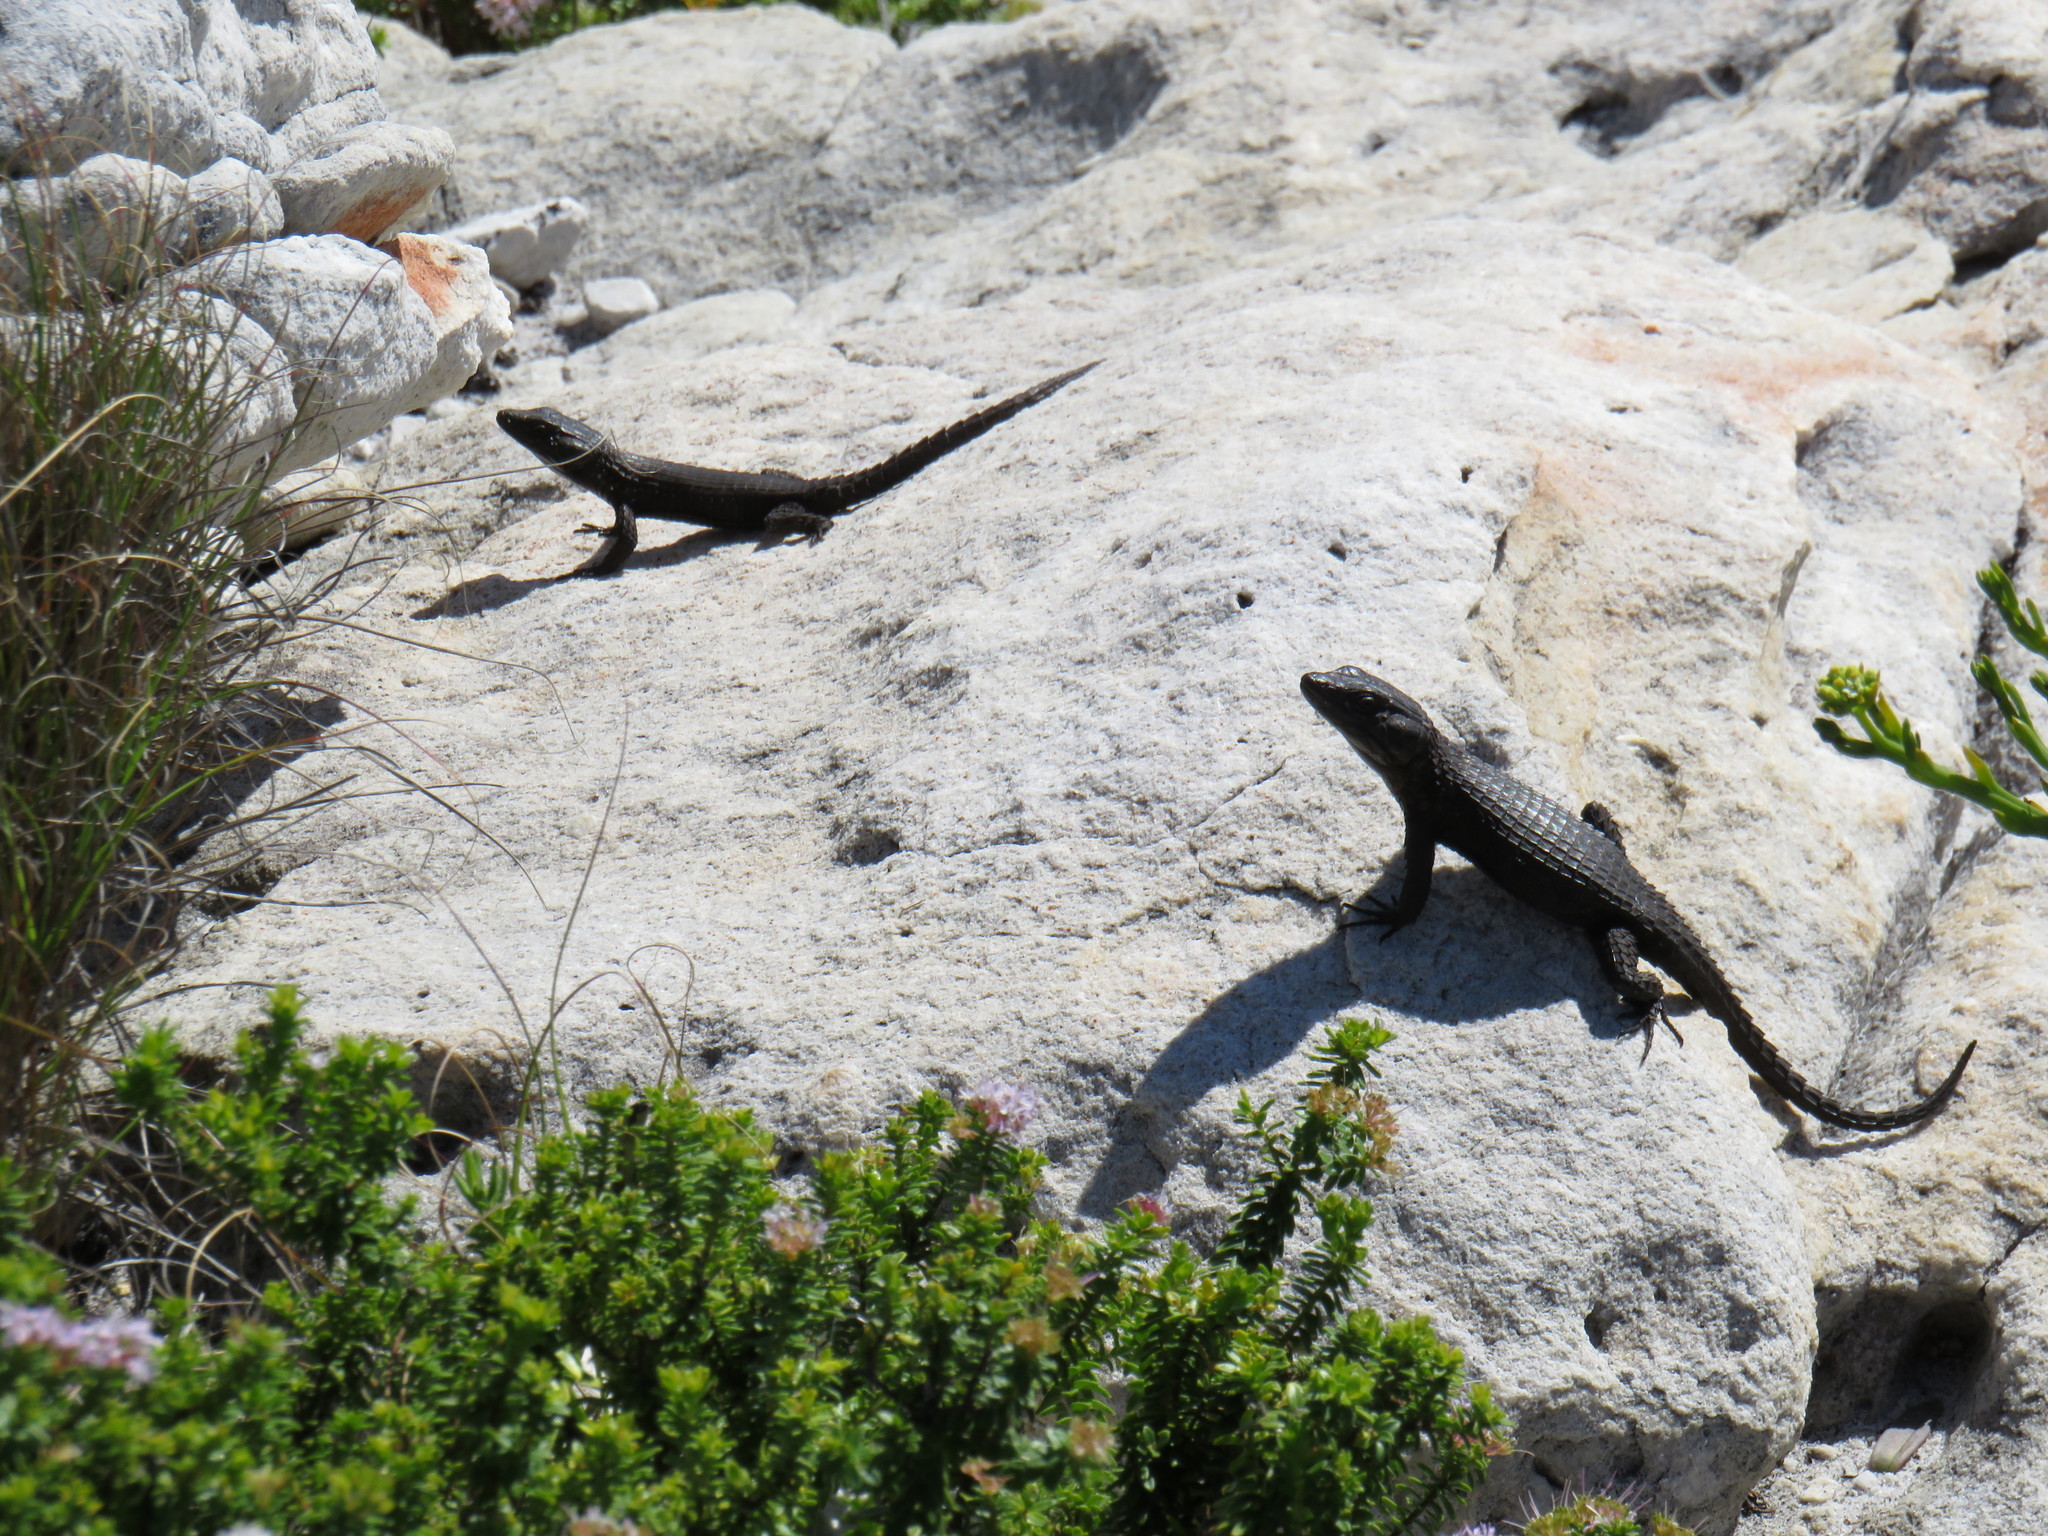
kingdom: Animalia
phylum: Chordata
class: Squamata
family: Cordylidae
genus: Cordylus
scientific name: Cordylus niger
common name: Black girdled lizard
